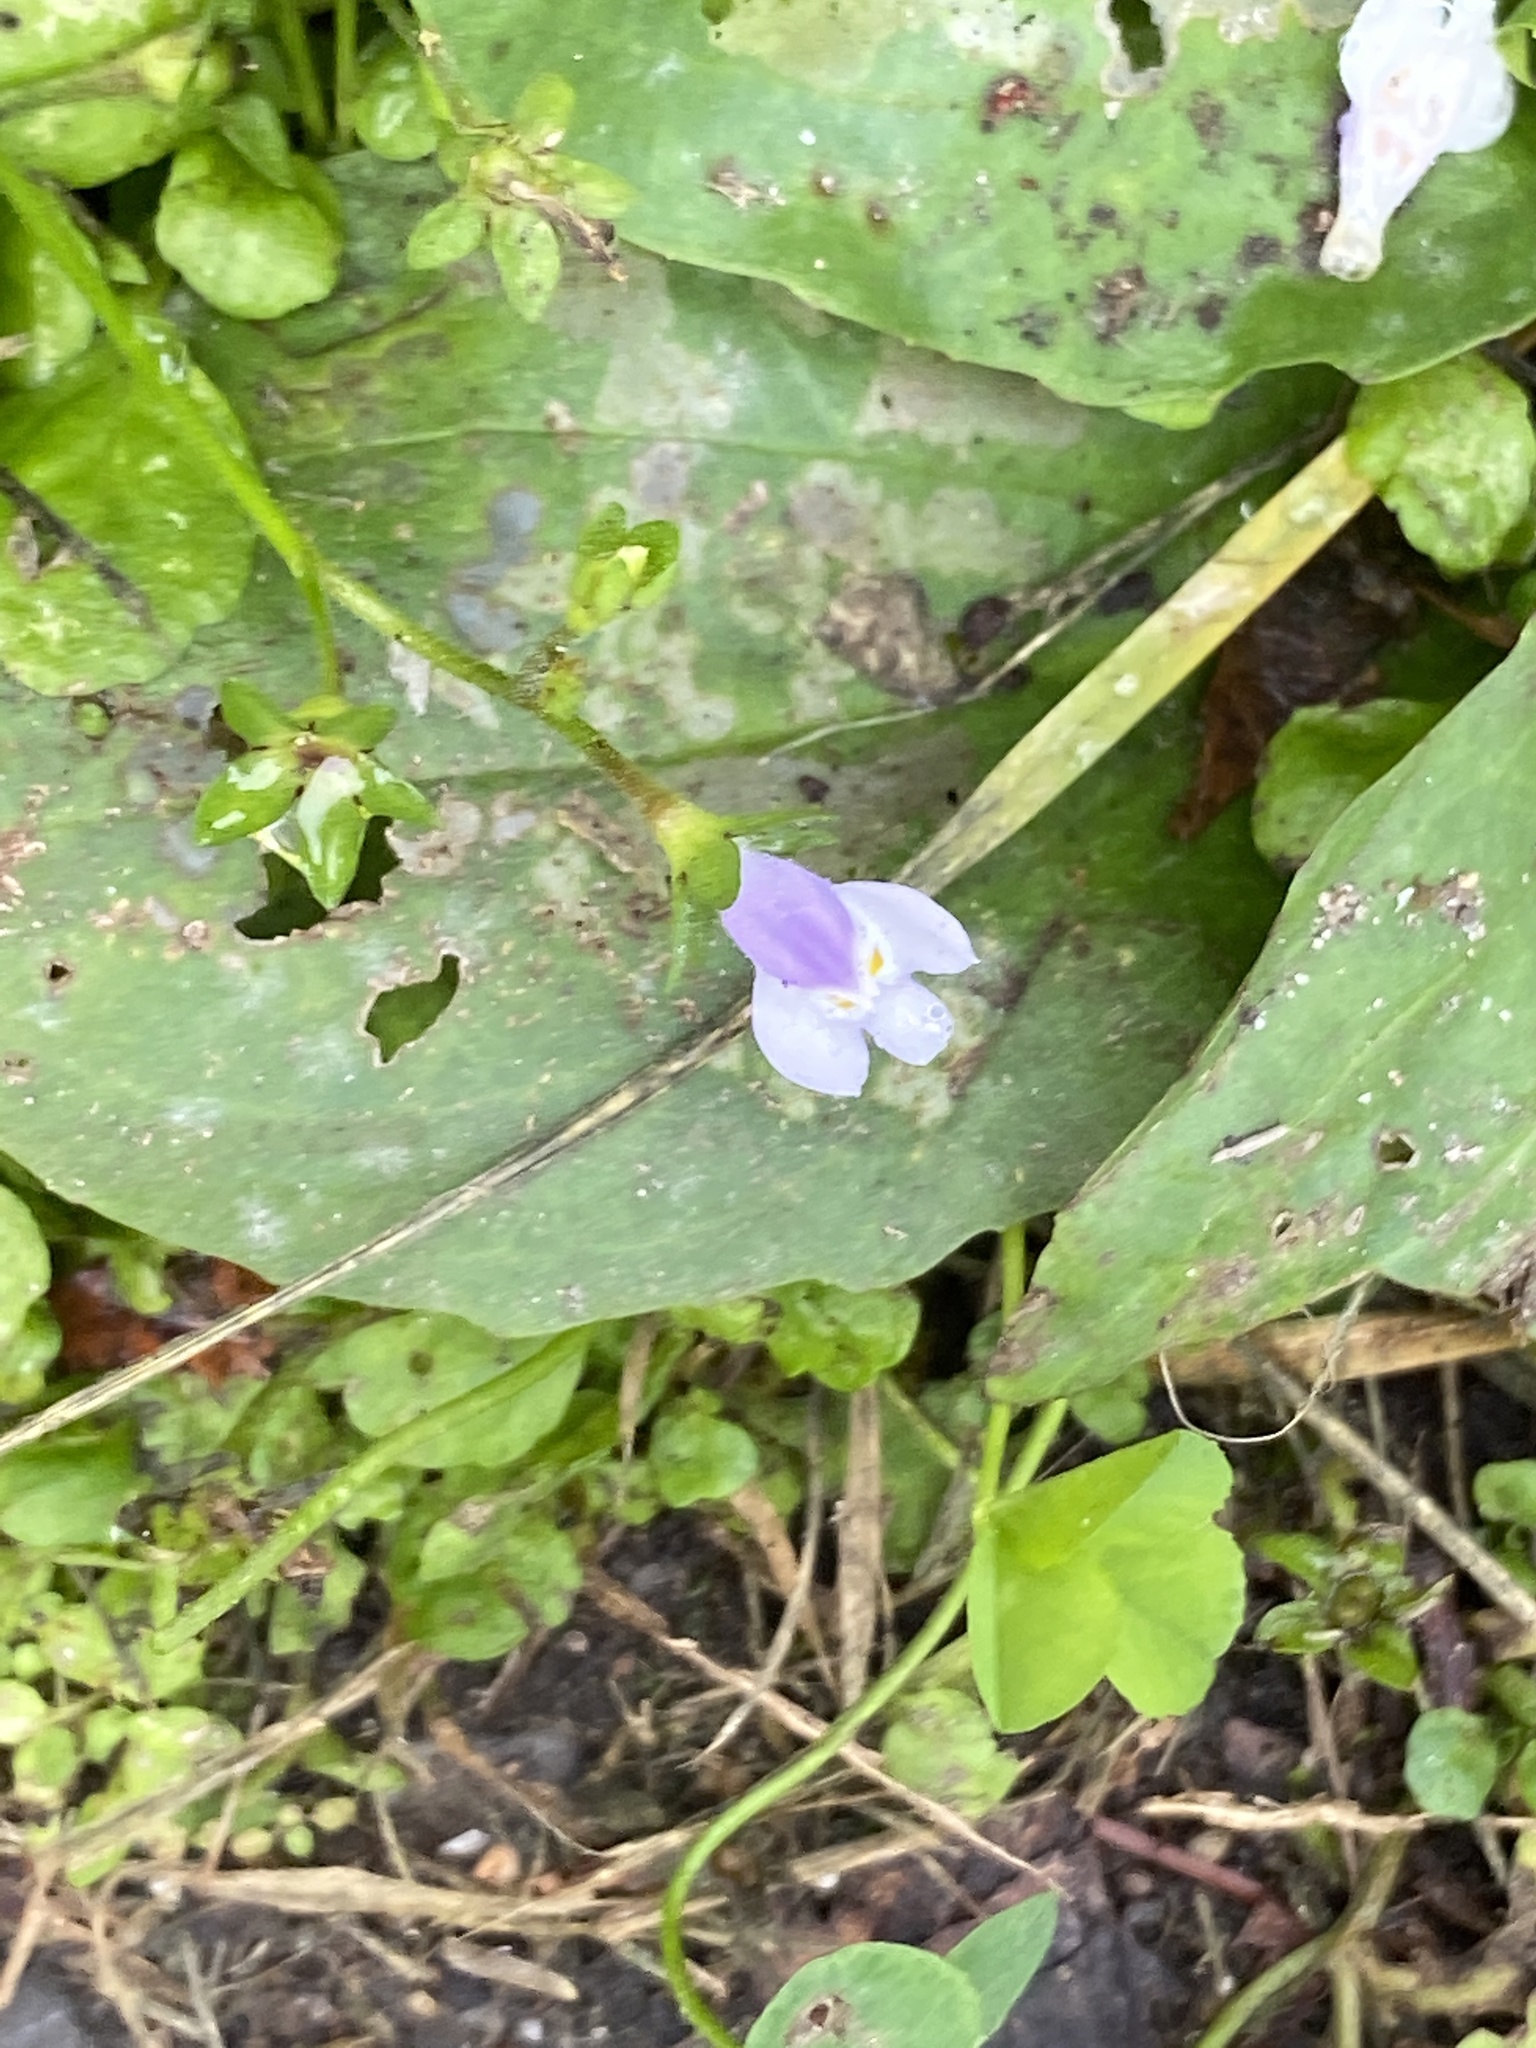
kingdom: Plantae
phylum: Tracheophyta
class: Magnoliopsida
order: Lamiales
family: Mazaceae
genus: Mazus
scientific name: Mazus pumilus
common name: Japanese mazus
